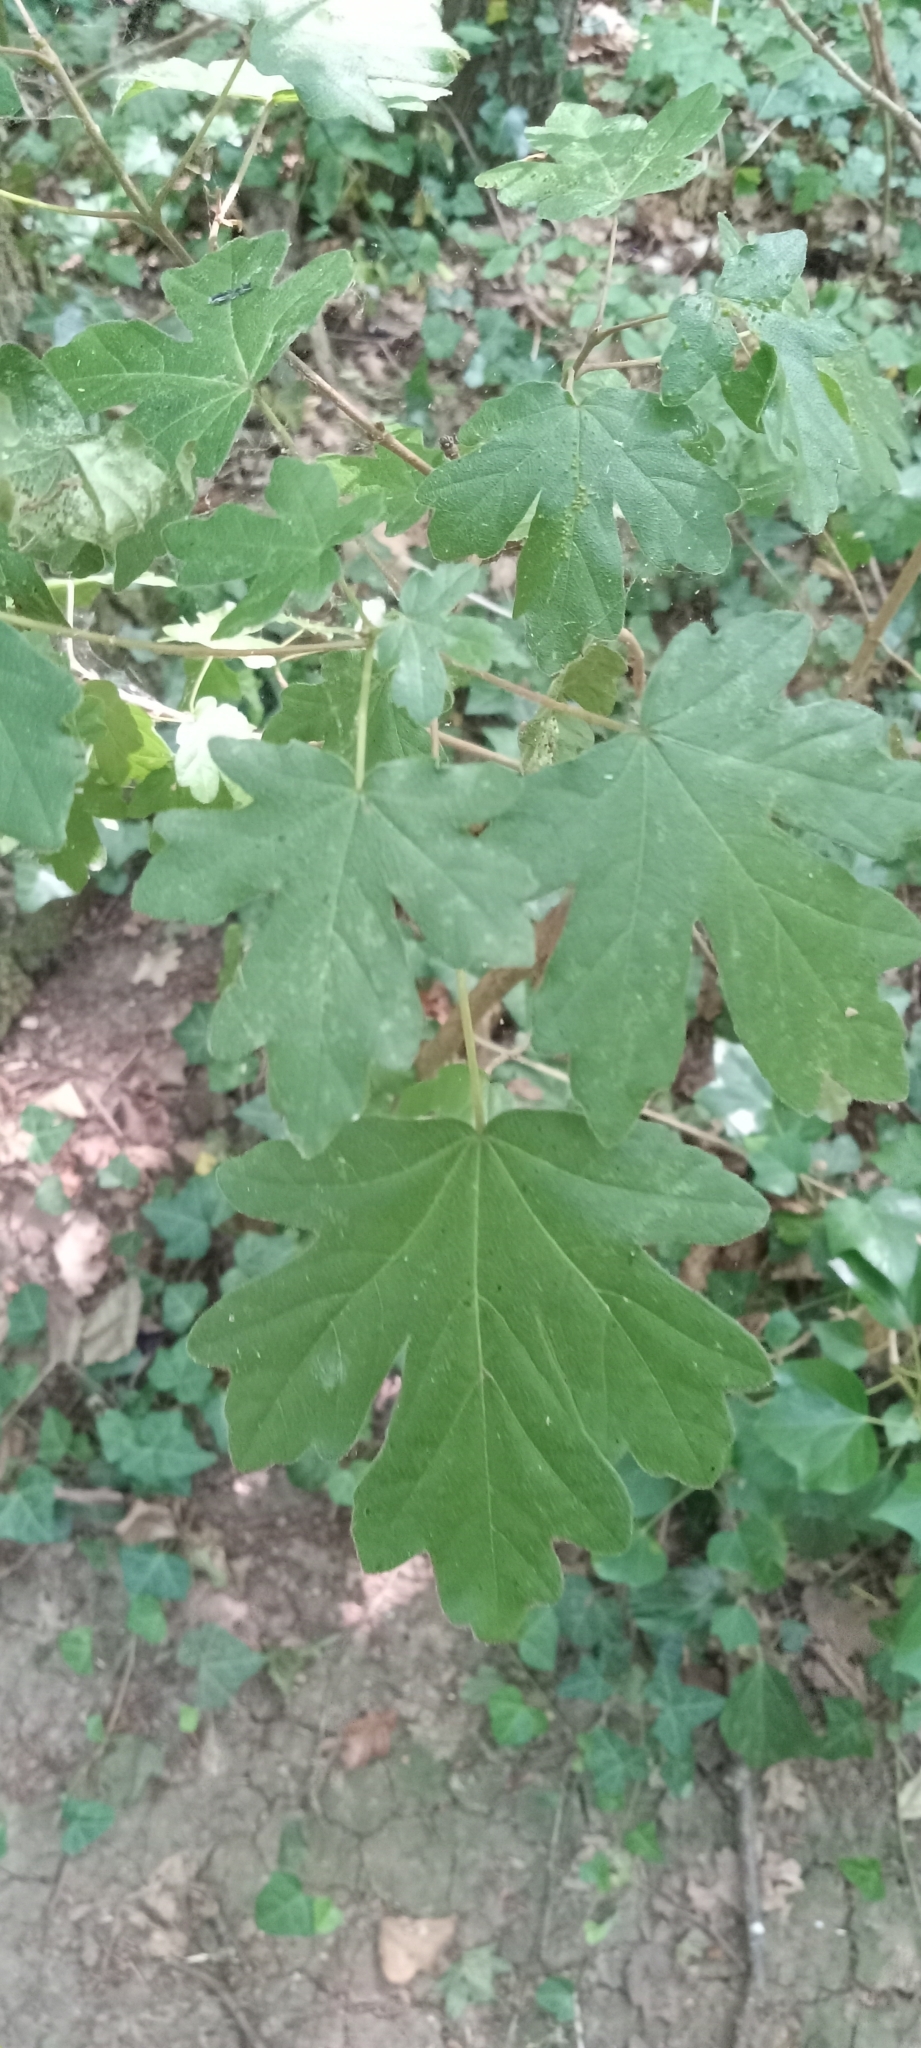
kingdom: Plantae
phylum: Tracheophyta
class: Magnoliopsida
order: Sapindales
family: Sapindaceae
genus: Acer
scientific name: Acer campestre
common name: Field maple
